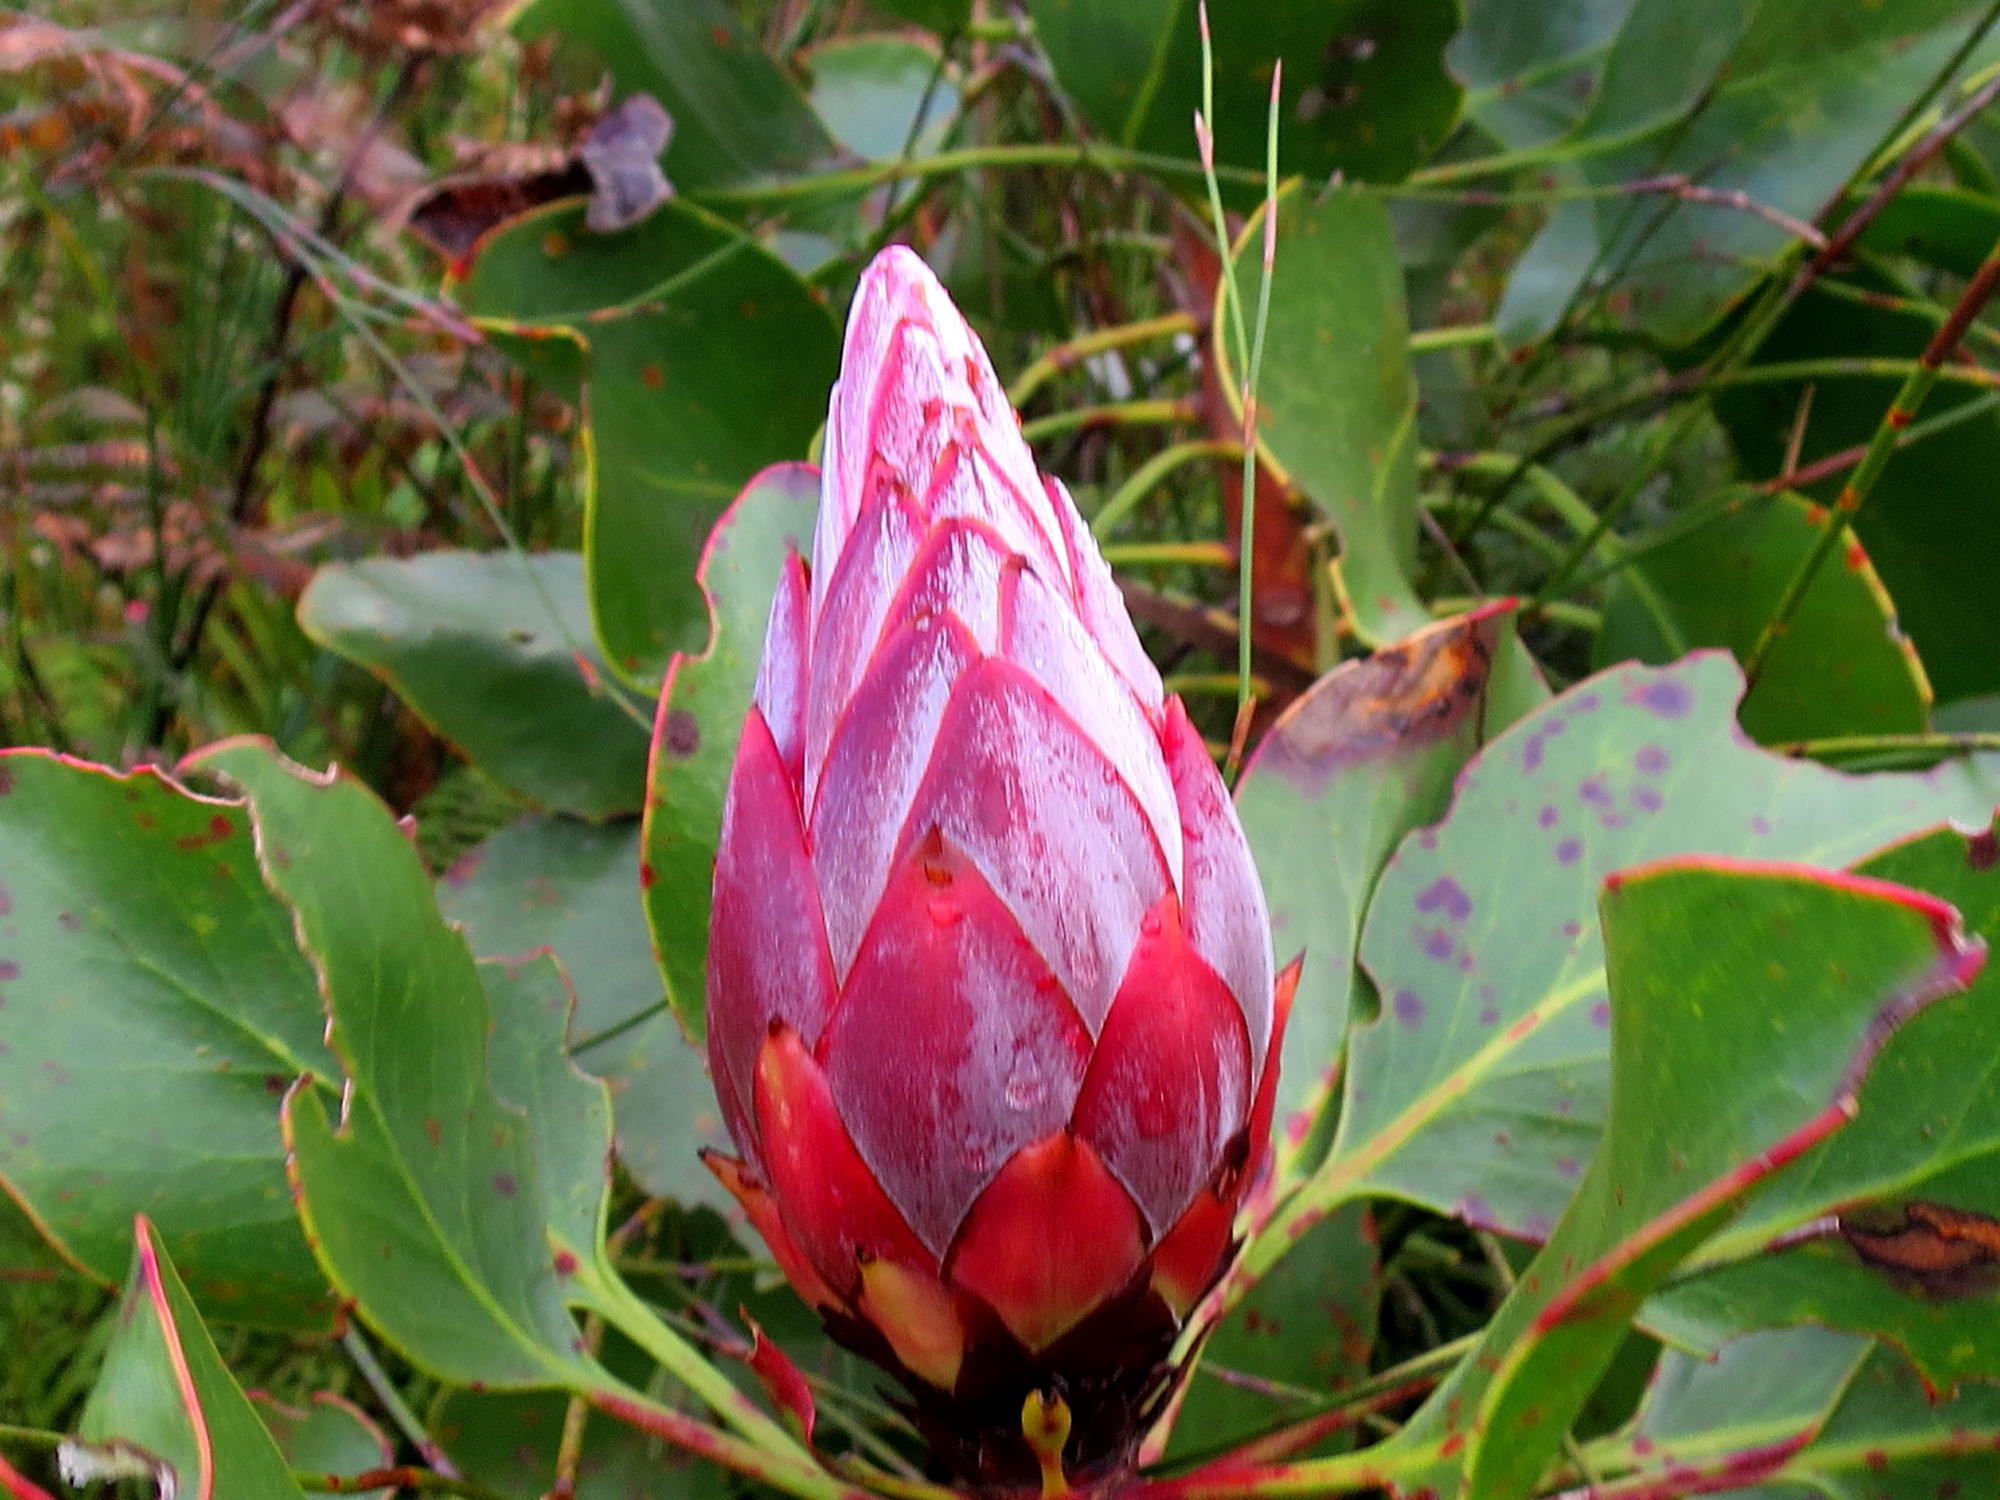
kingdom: Plantae
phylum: Tracheophyta
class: Magnoliopsida
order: Proteales
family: Proteaceae
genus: Protea
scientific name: Protea cynaroides
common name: King protea
